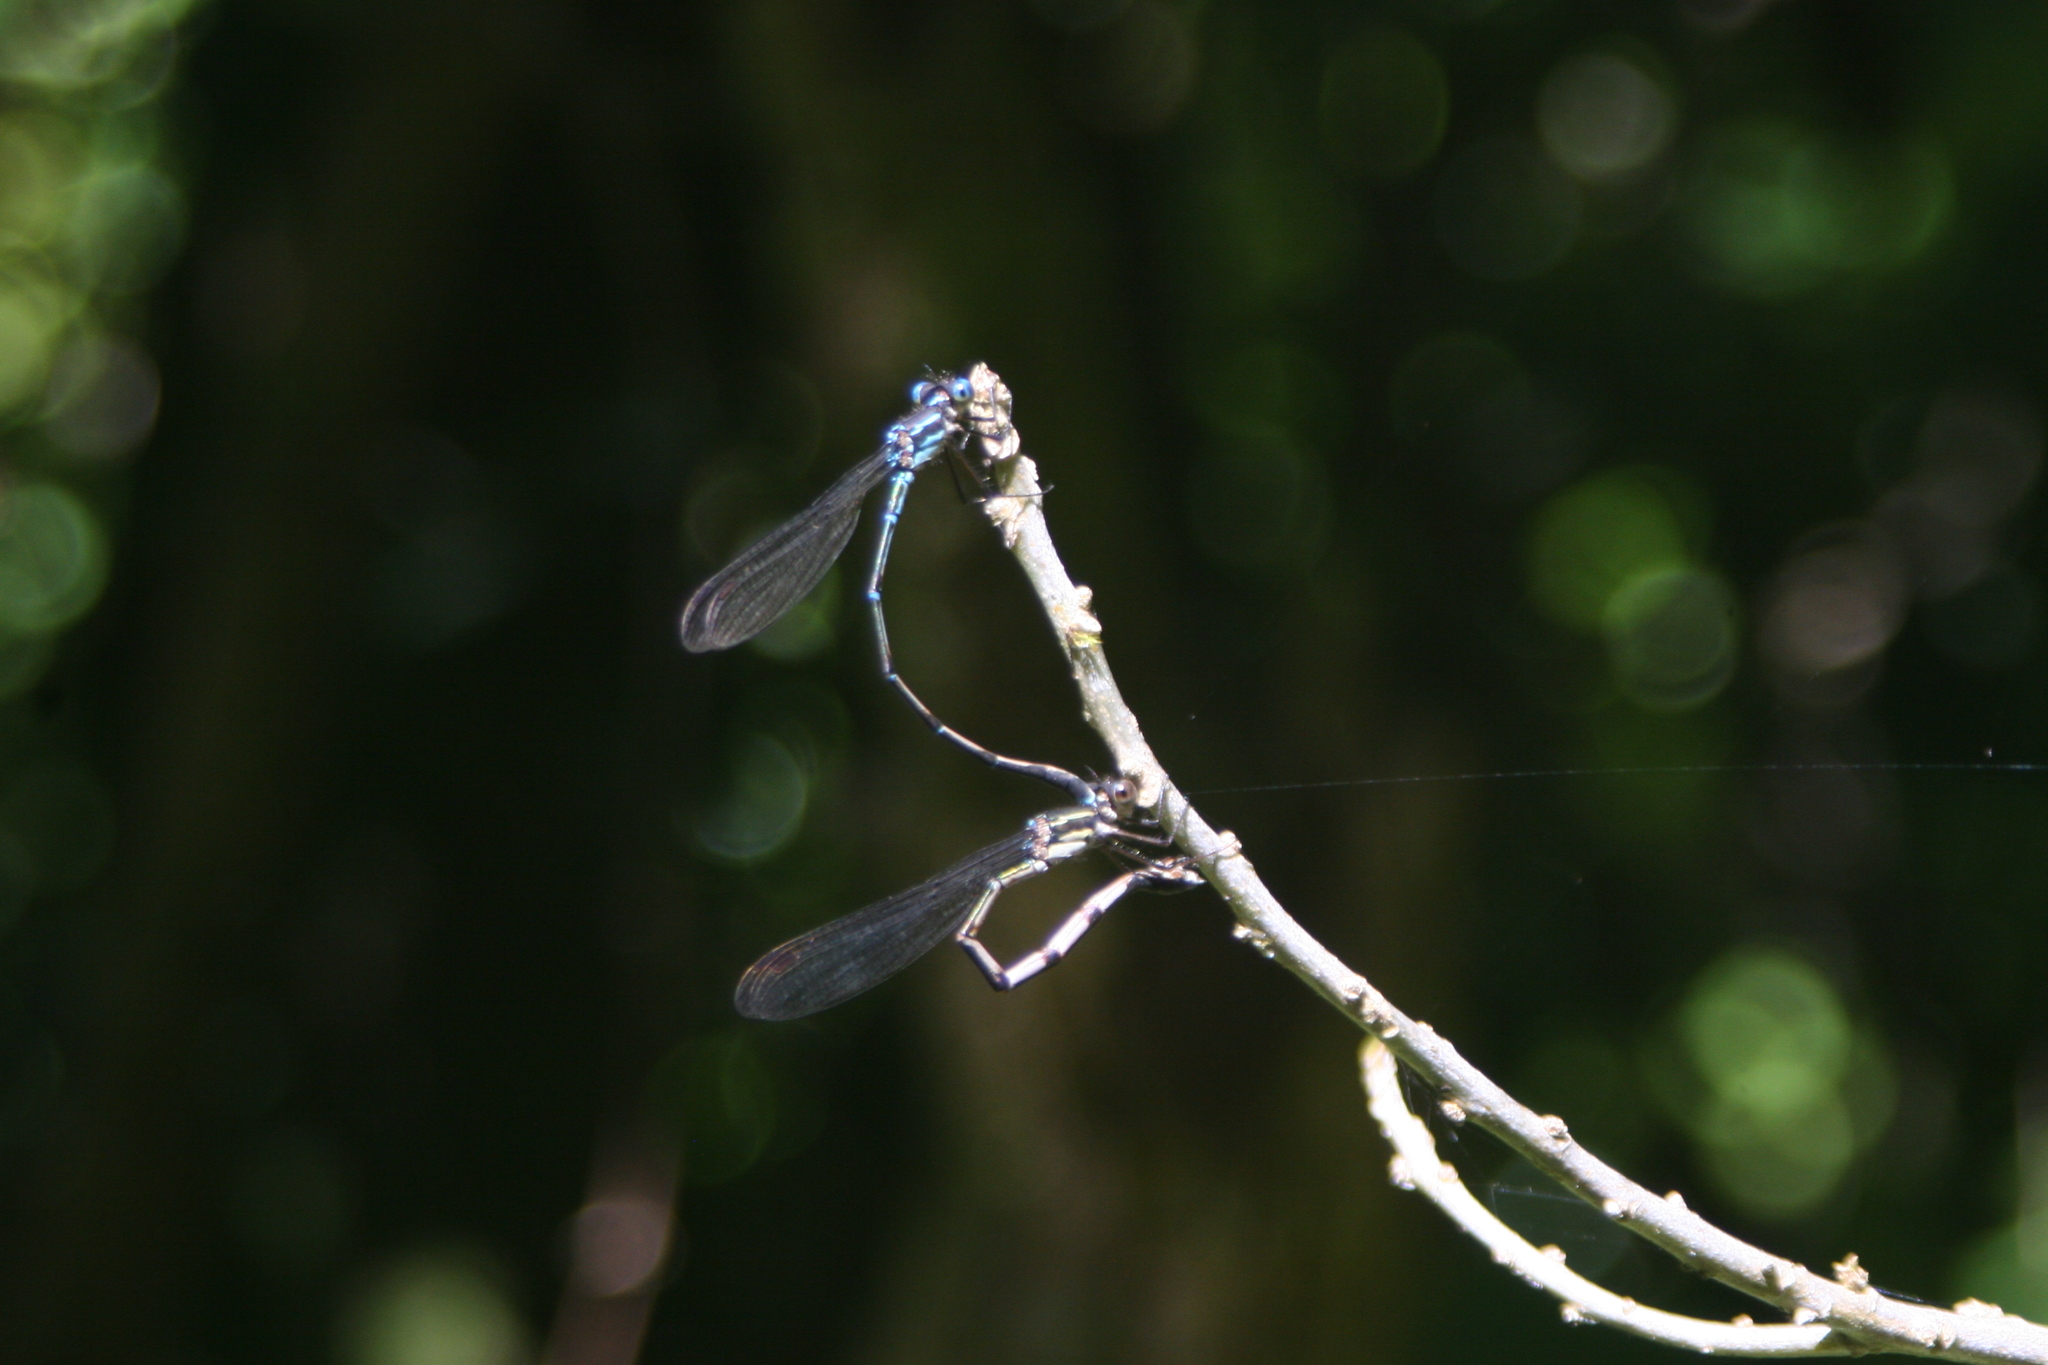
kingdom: Animalia
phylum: Arthropoda
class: Insecta
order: Odonata
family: Lestidae
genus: Austrolestes
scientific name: Austrolestes colensonis
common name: Blue damselfly
